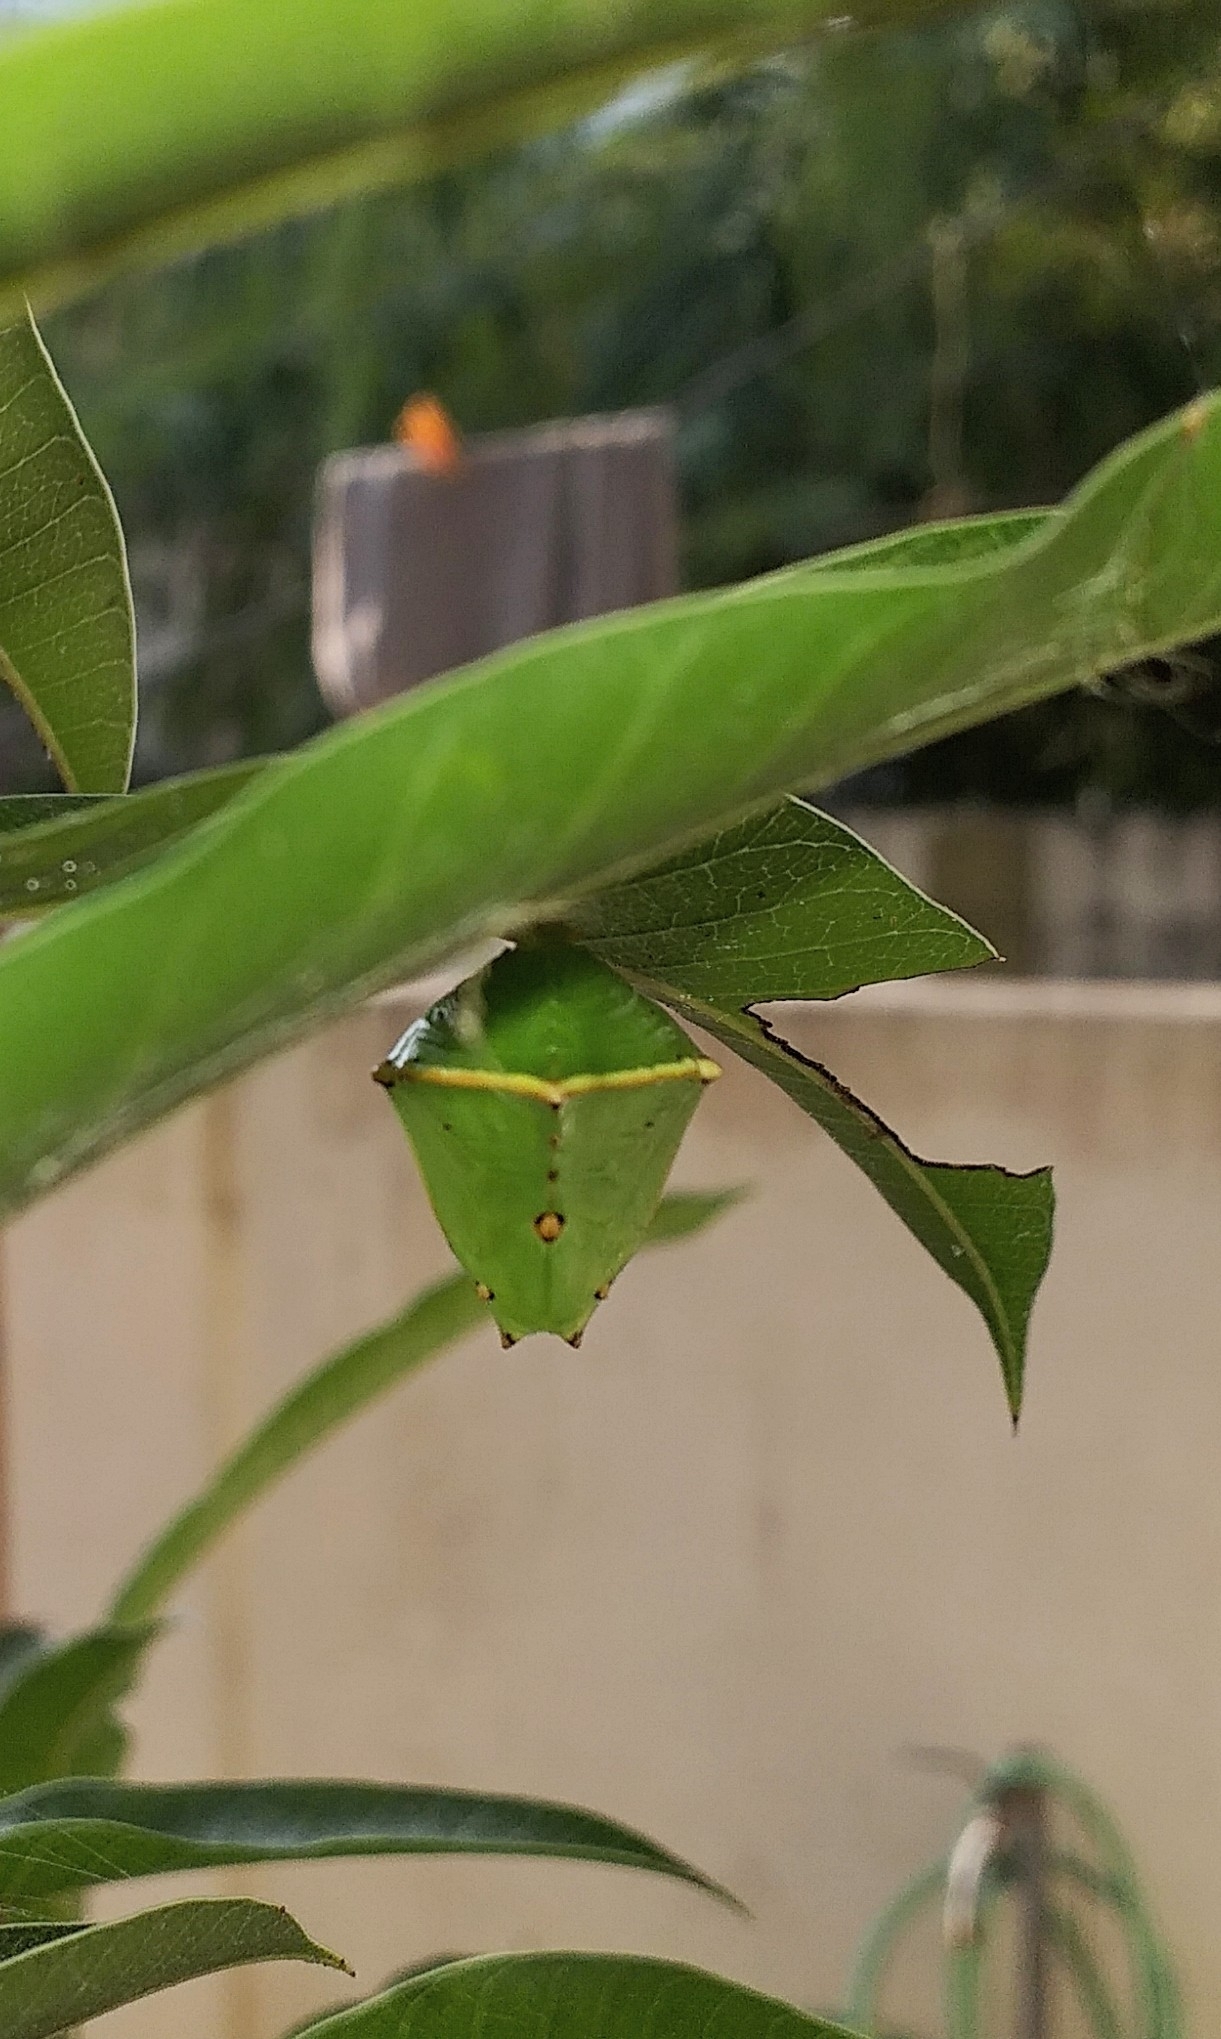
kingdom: Animalia
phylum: Arthropoda
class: Insecta
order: Lepidoptera
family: Nymphalidae
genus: Euthalia
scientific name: Euthalia aconthea
